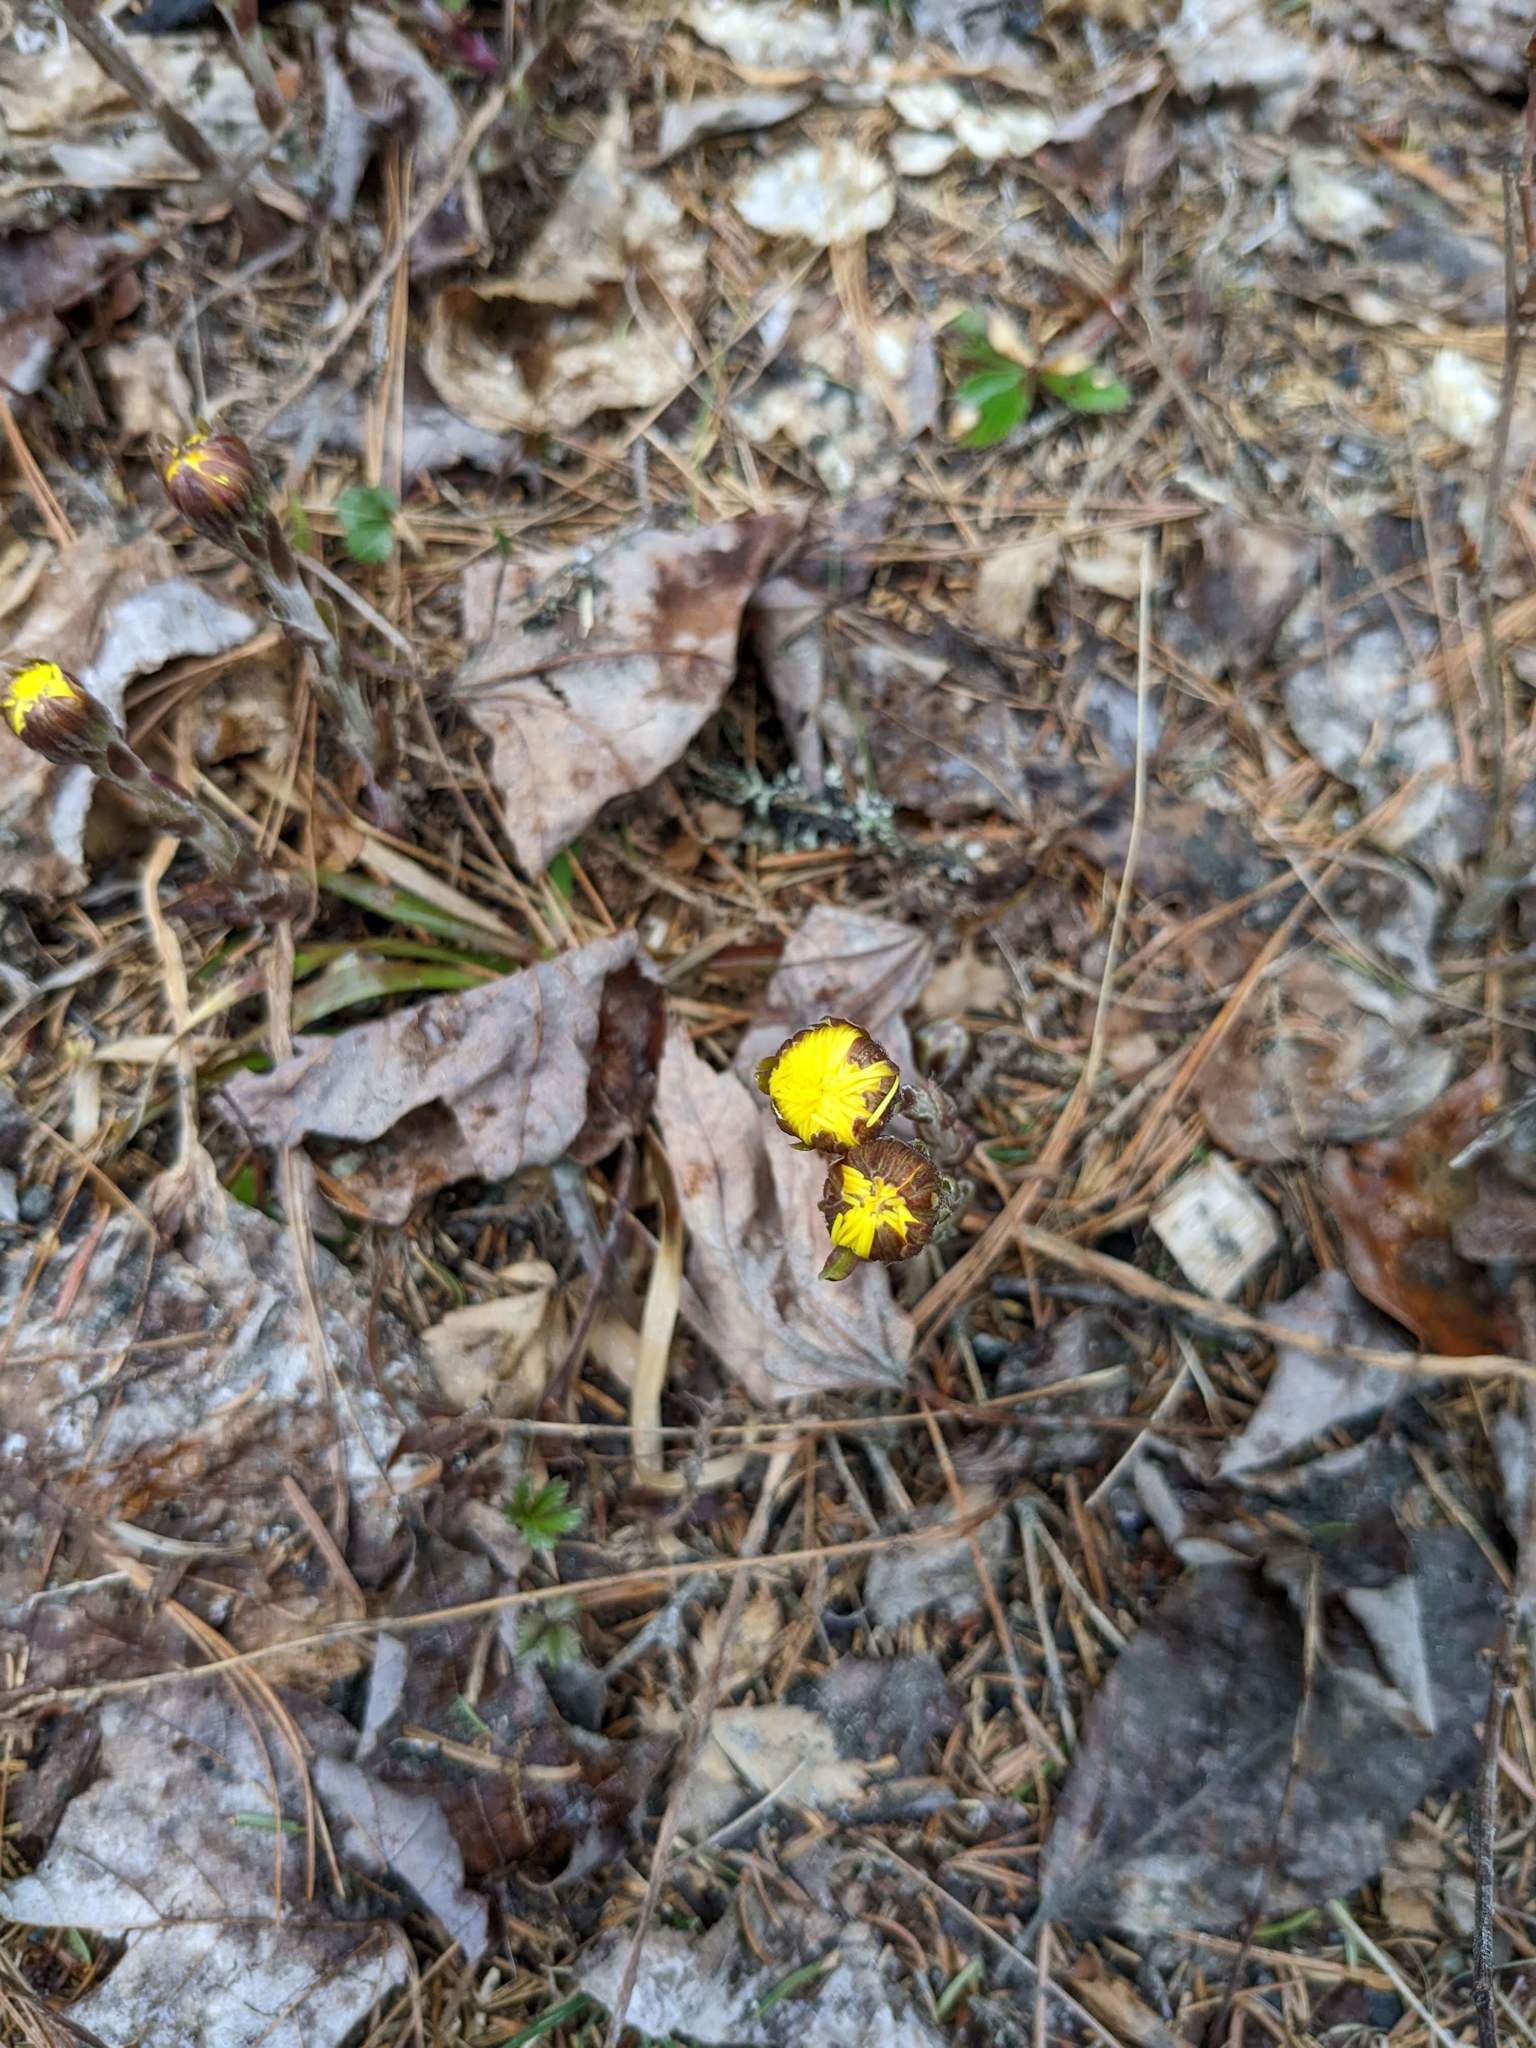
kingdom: Plantae
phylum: Tracheophyta
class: Magnoliopsida
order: Asterales
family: Asteraceae
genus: Tussilago
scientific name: Tussilago farfara
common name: Coltsfoot
